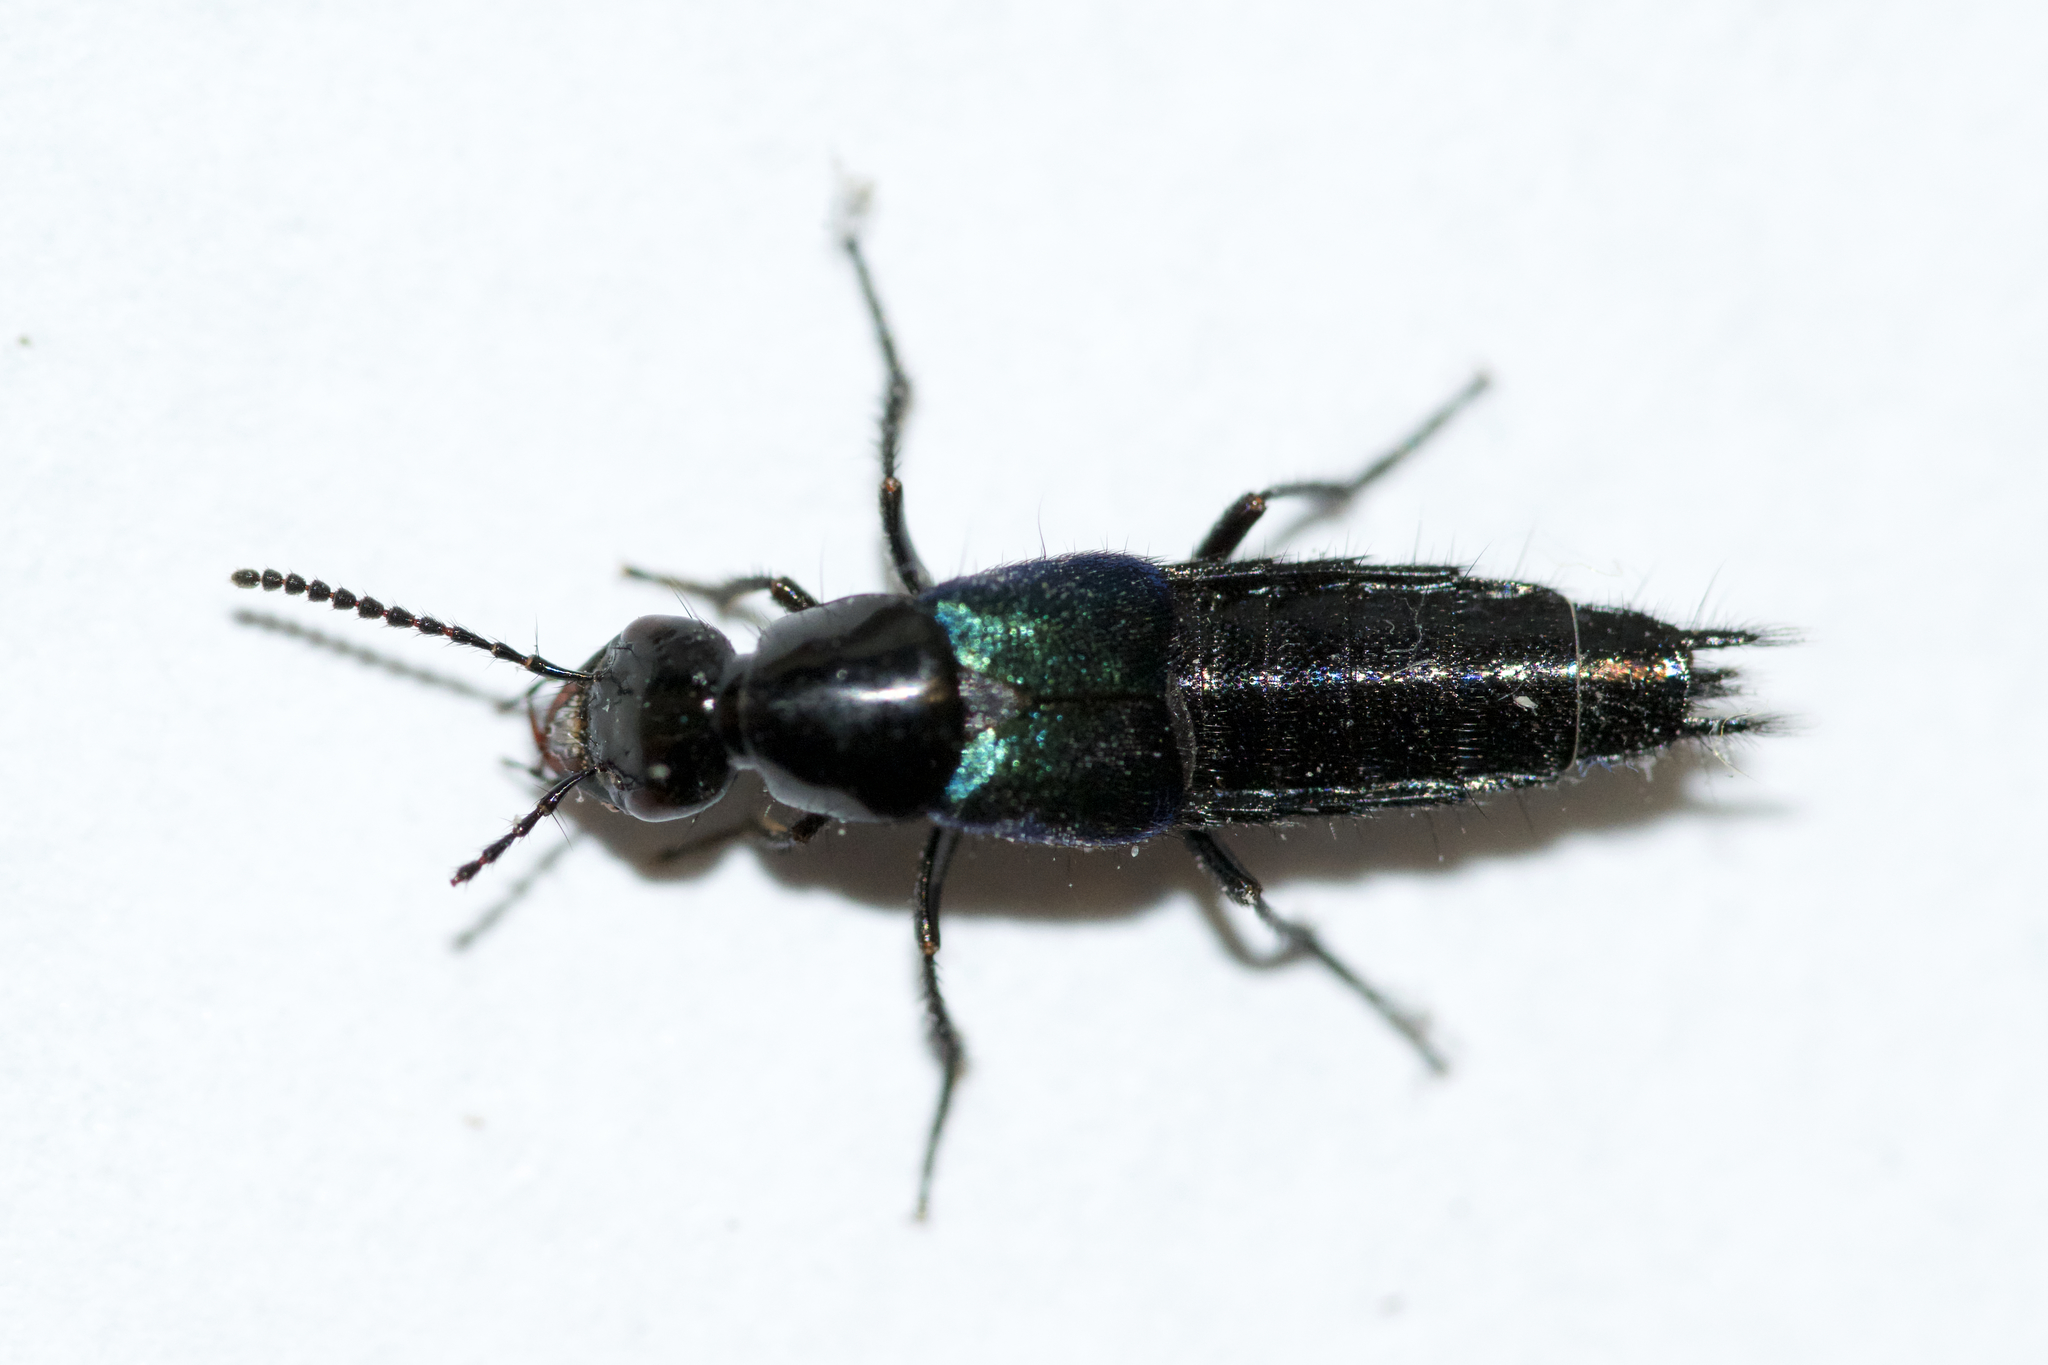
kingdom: Animalia
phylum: Arthropoda
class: Insecta
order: Coleoptera
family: Staphylinidae
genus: Philonthus
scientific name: Philonthus caeruleipennis
